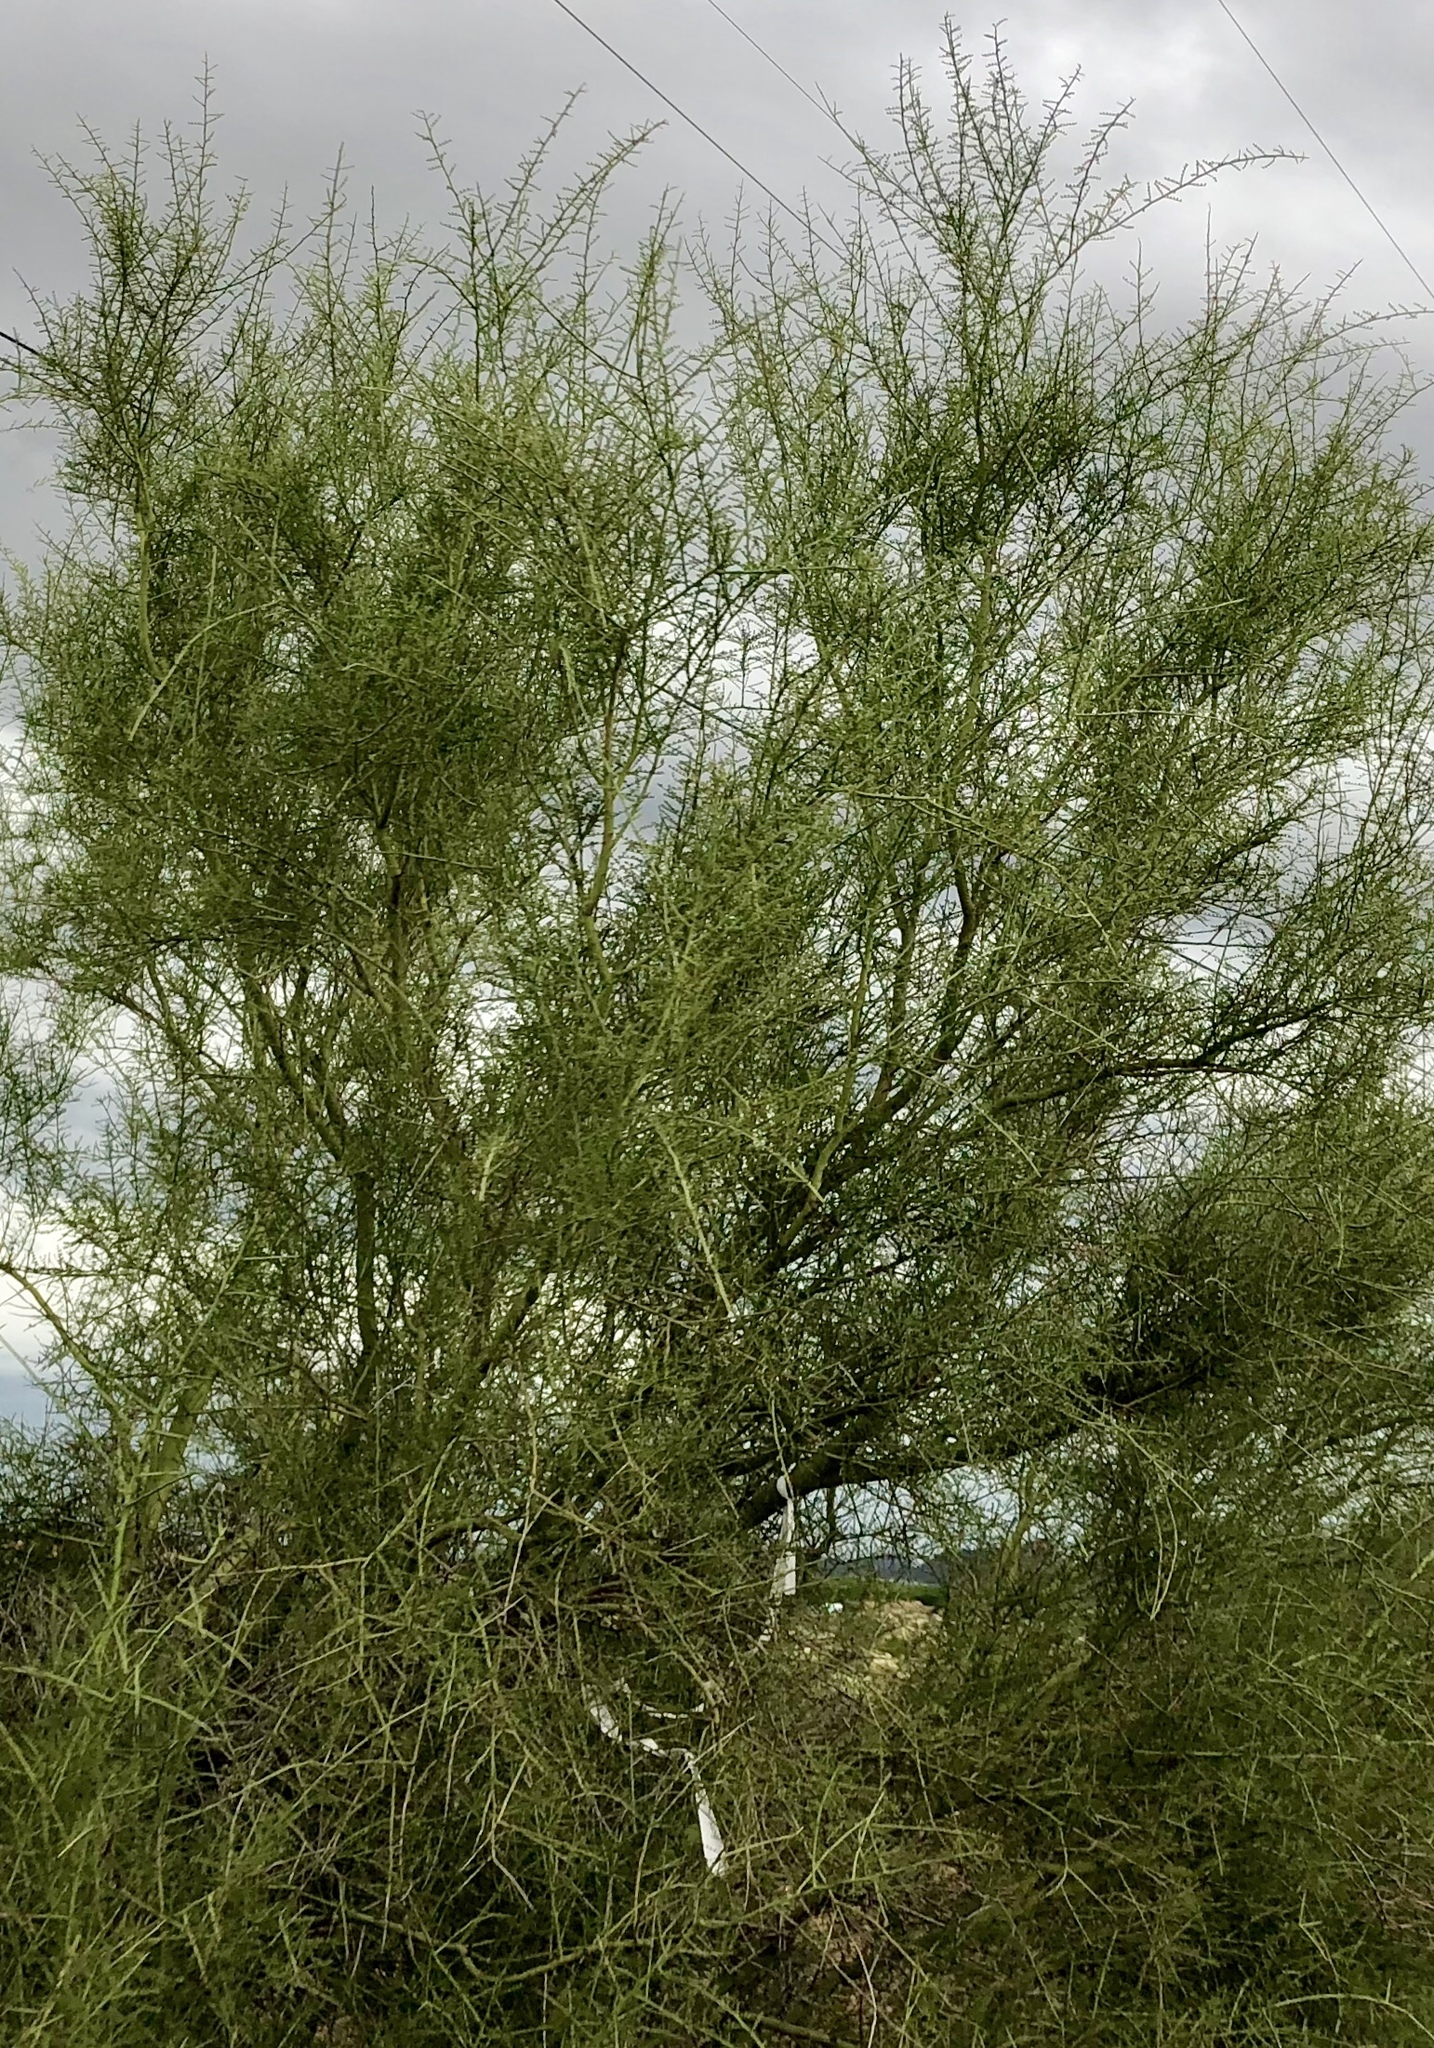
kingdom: Plantae
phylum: Tracheophyta
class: Magnoliopsida
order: Fabales
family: Fabaceae
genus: Parkinsonia
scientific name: Parkinsonia microphylla
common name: Yellow paloverde
